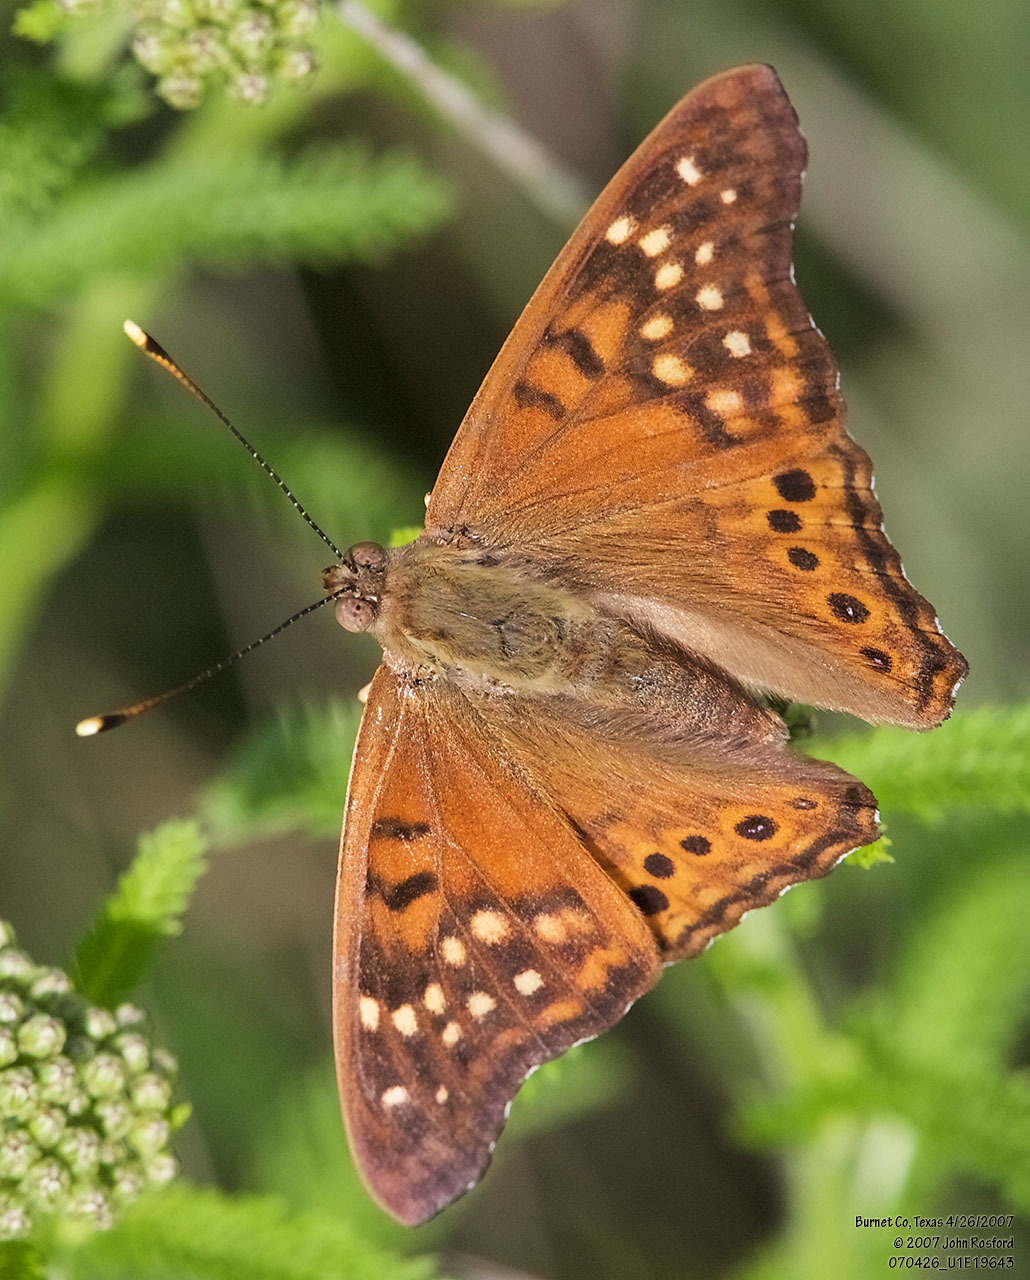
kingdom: Animalia
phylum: Arthropoda
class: Insecta
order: Lepidoptera
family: Nymphalidae
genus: Asterocampa
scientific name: Asterocampa clyton
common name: Tawny emperor
